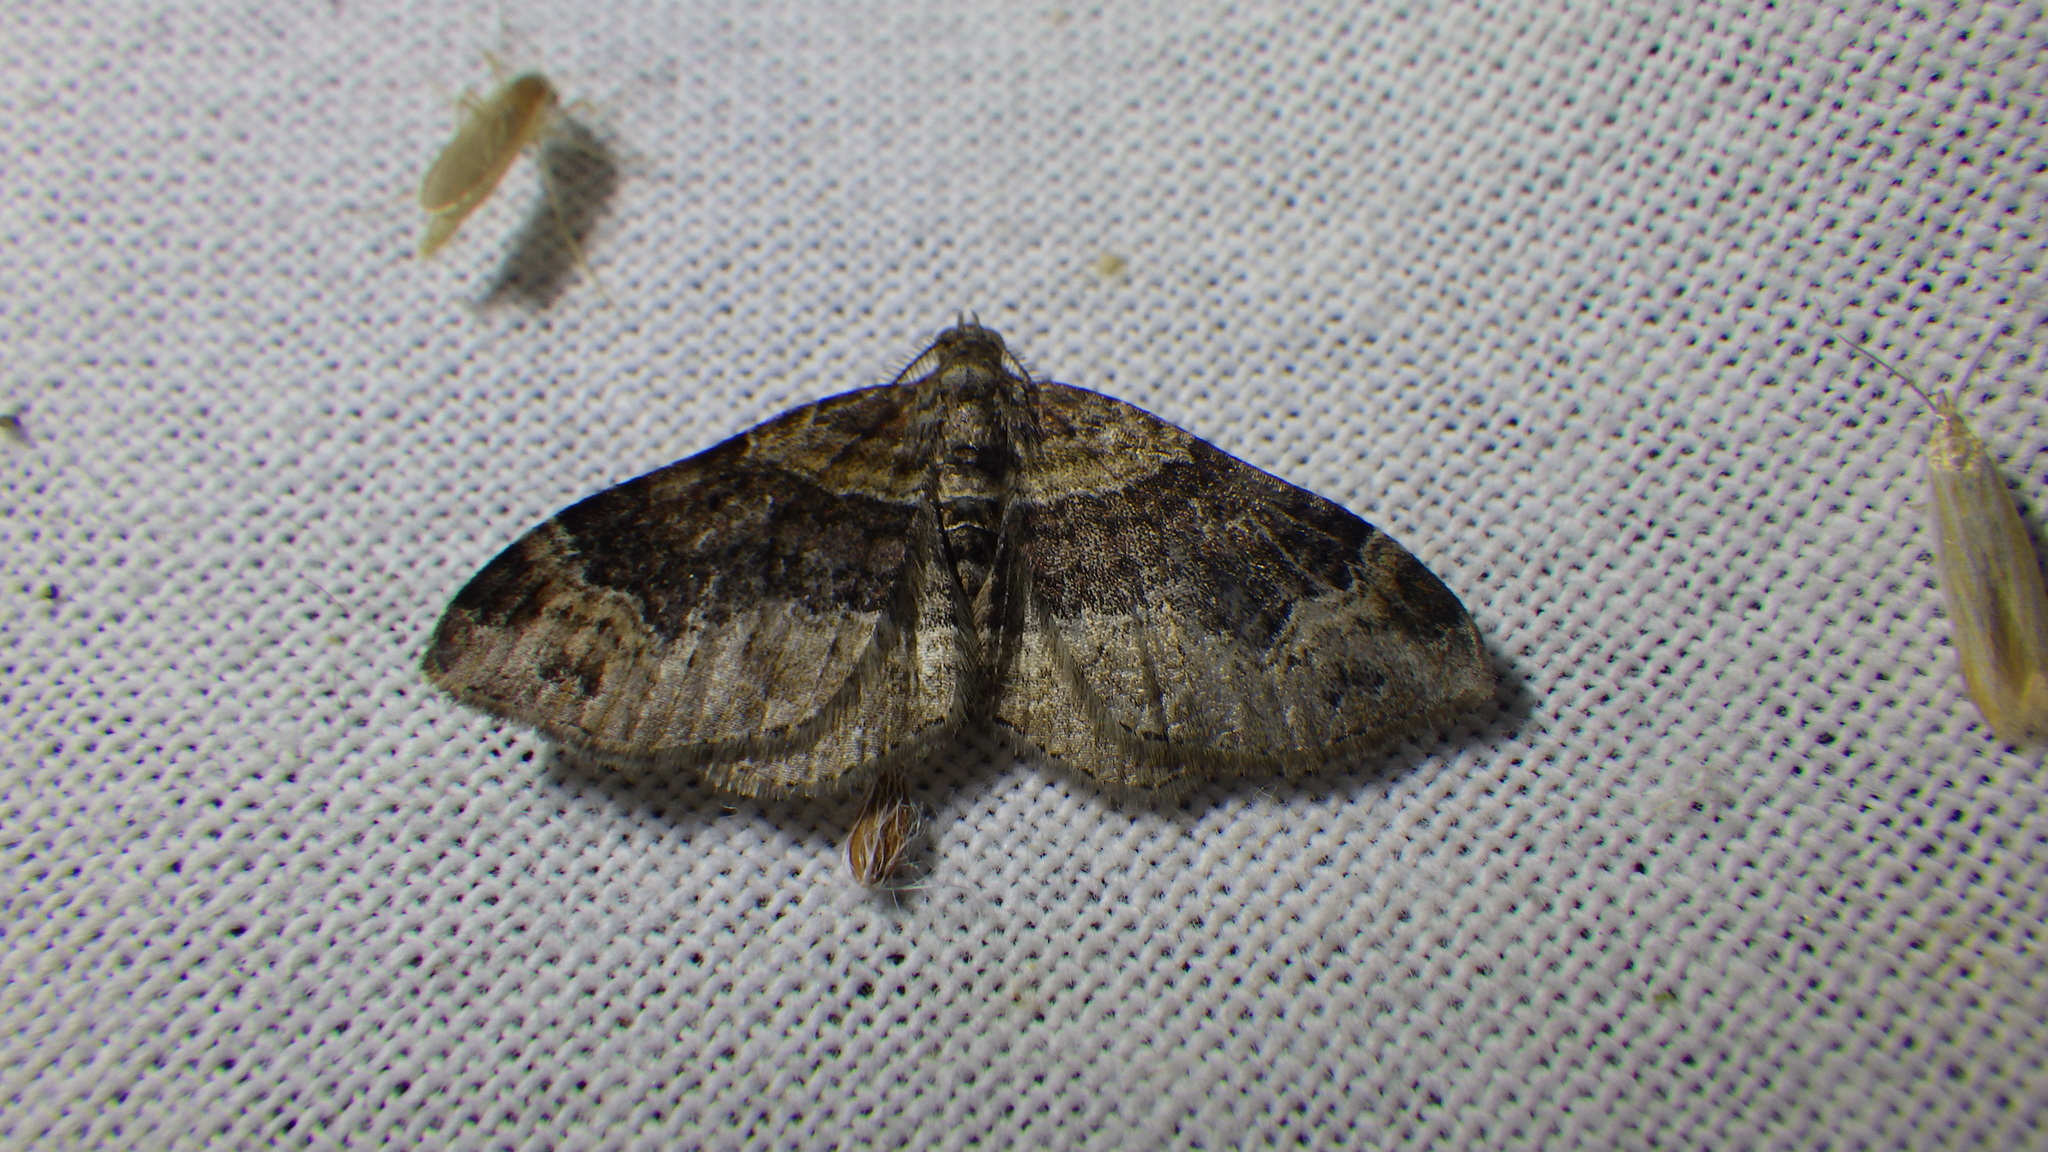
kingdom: Animalia
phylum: Arthropoda
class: Insecta
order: Lepidoptera
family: Geometridae
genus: Xanthorhoe
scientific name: Xanthorhoe ferrugata
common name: Dark-barred twin-spot carpet
